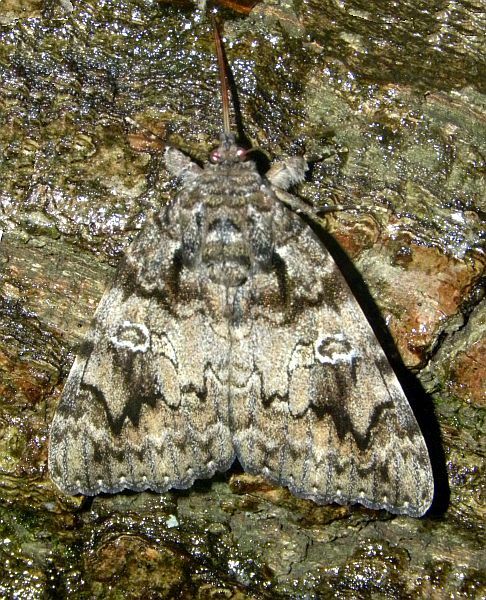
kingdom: Animalia
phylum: Arthropoda
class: Insecta
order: Lepidoptera
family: Erebidae
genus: Catocala
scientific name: Catocala ilia
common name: Ilia underwing
